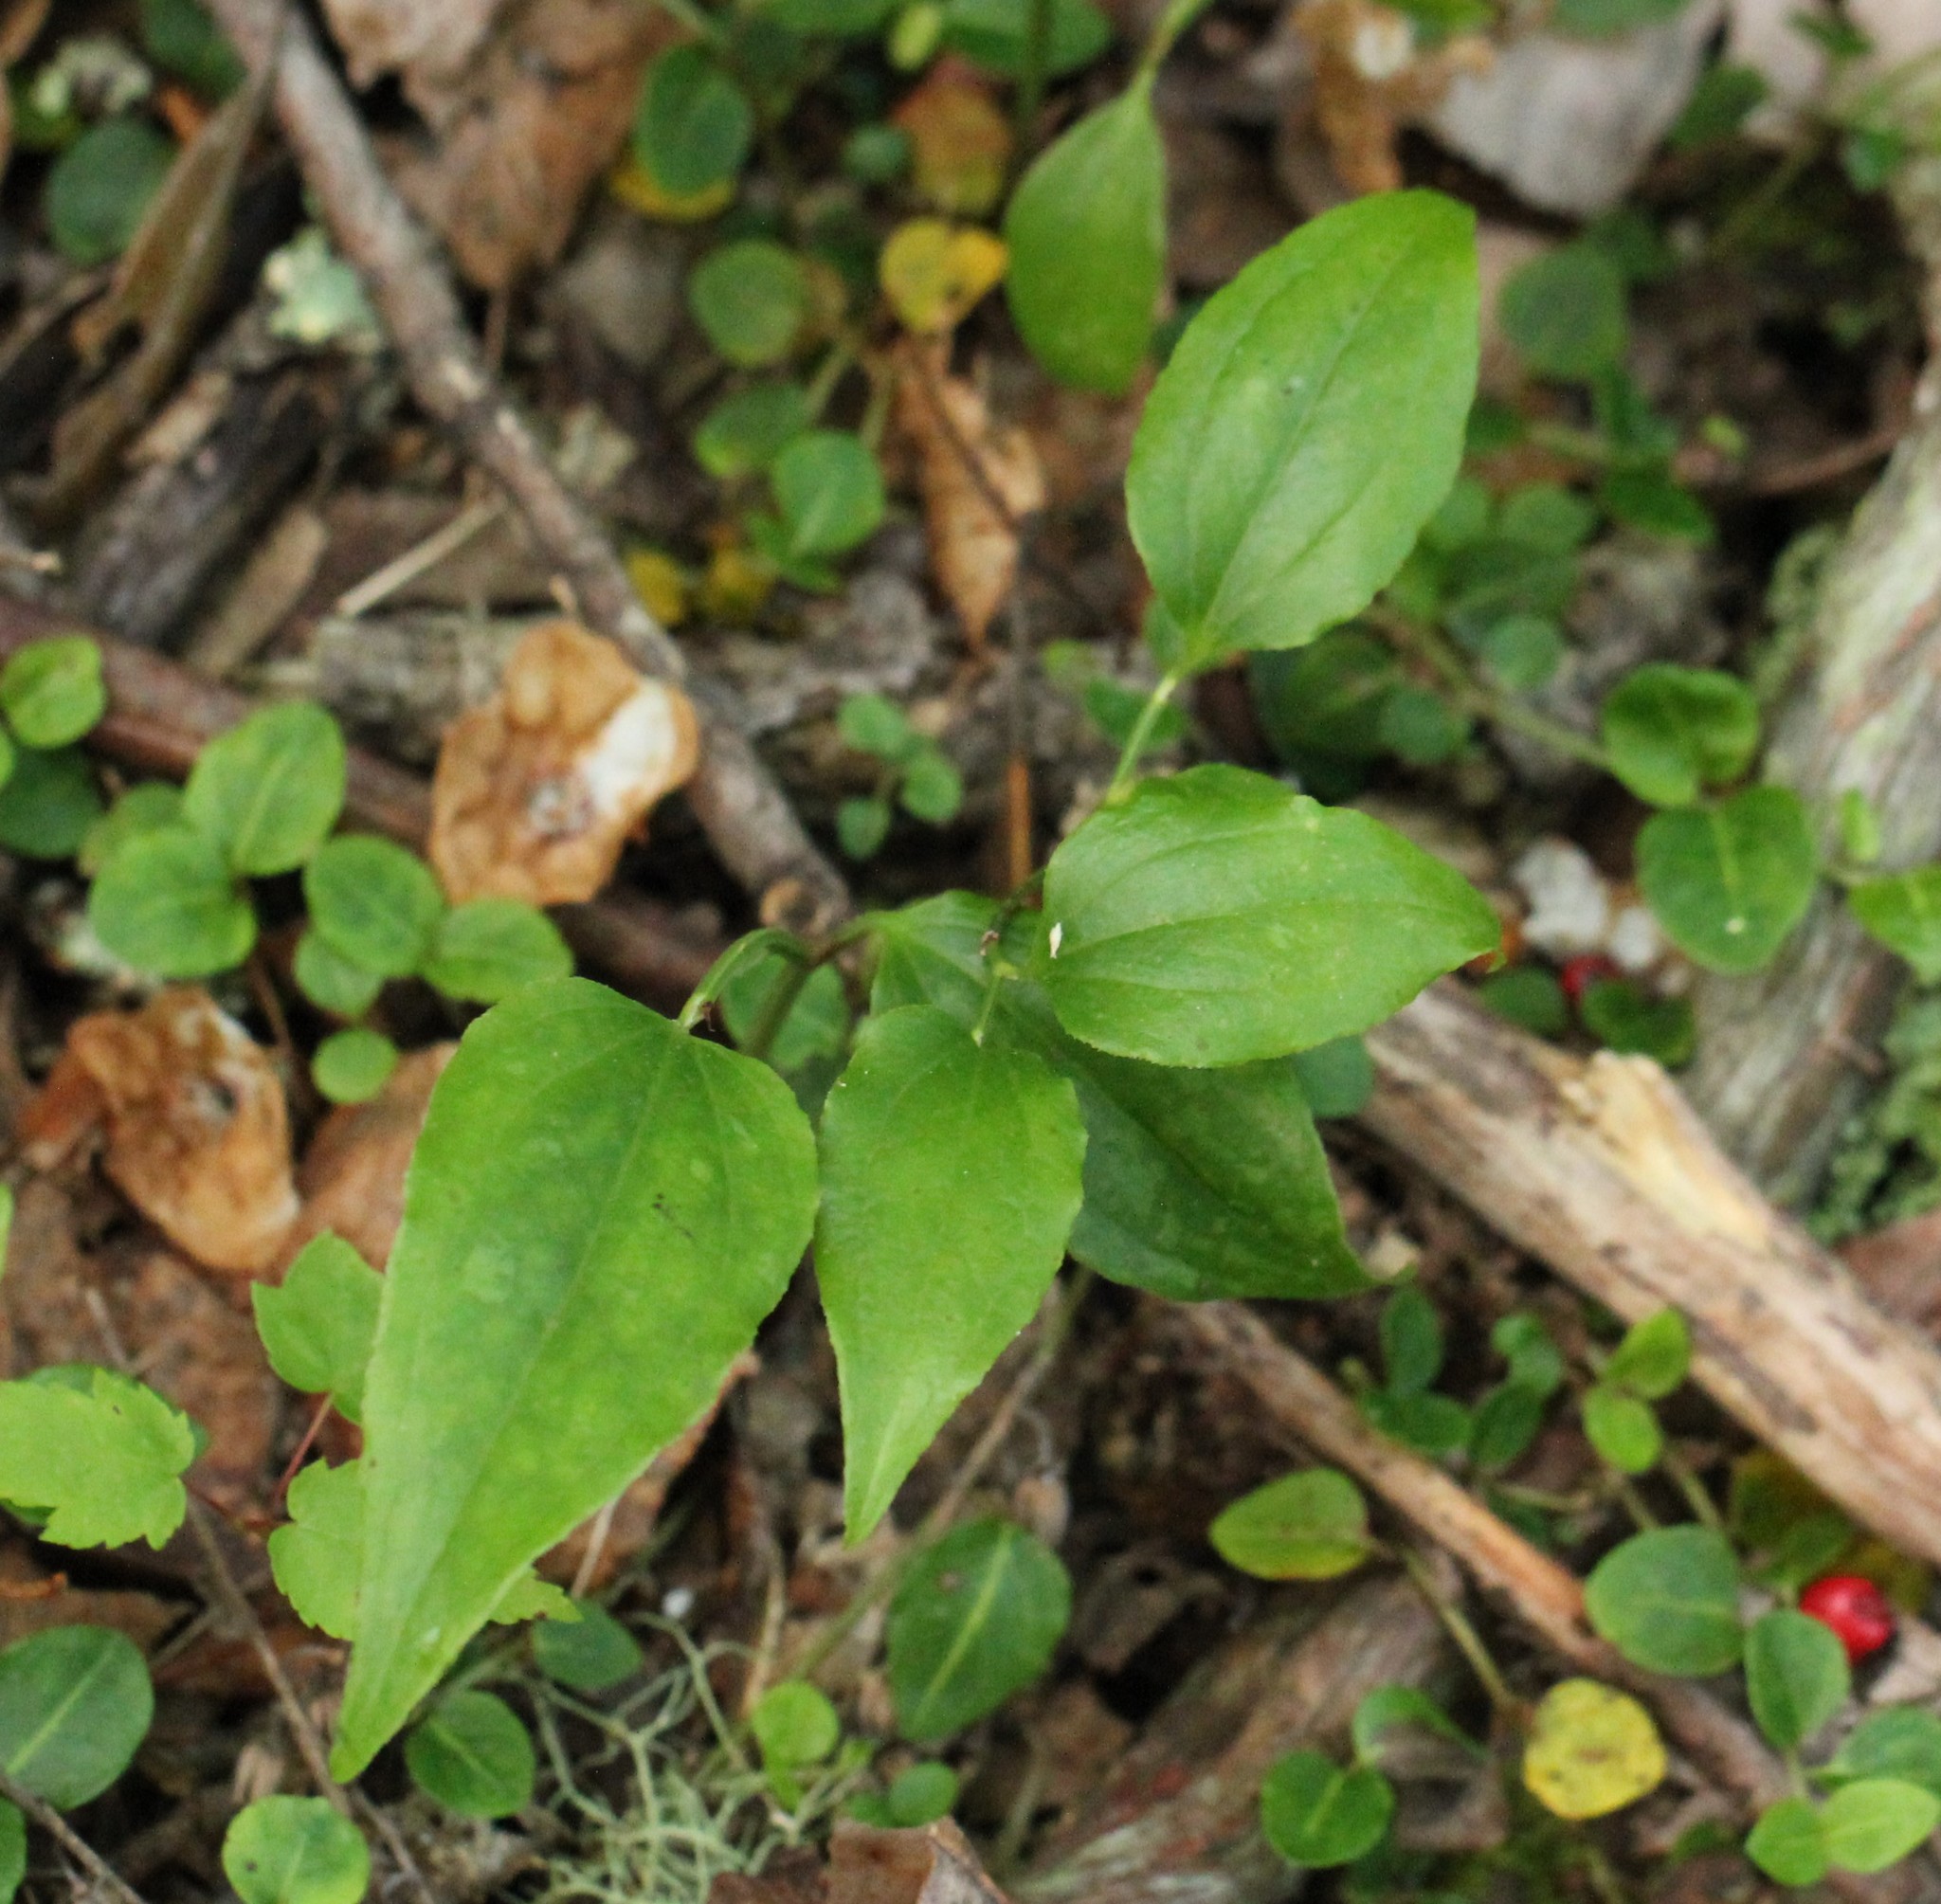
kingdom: Plantae
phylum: Tracheophyta
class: Liliopsida
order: Liliales
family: Smilacaceae
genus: Smilax
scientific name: Smilax tamnoides
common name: Hellfetter
